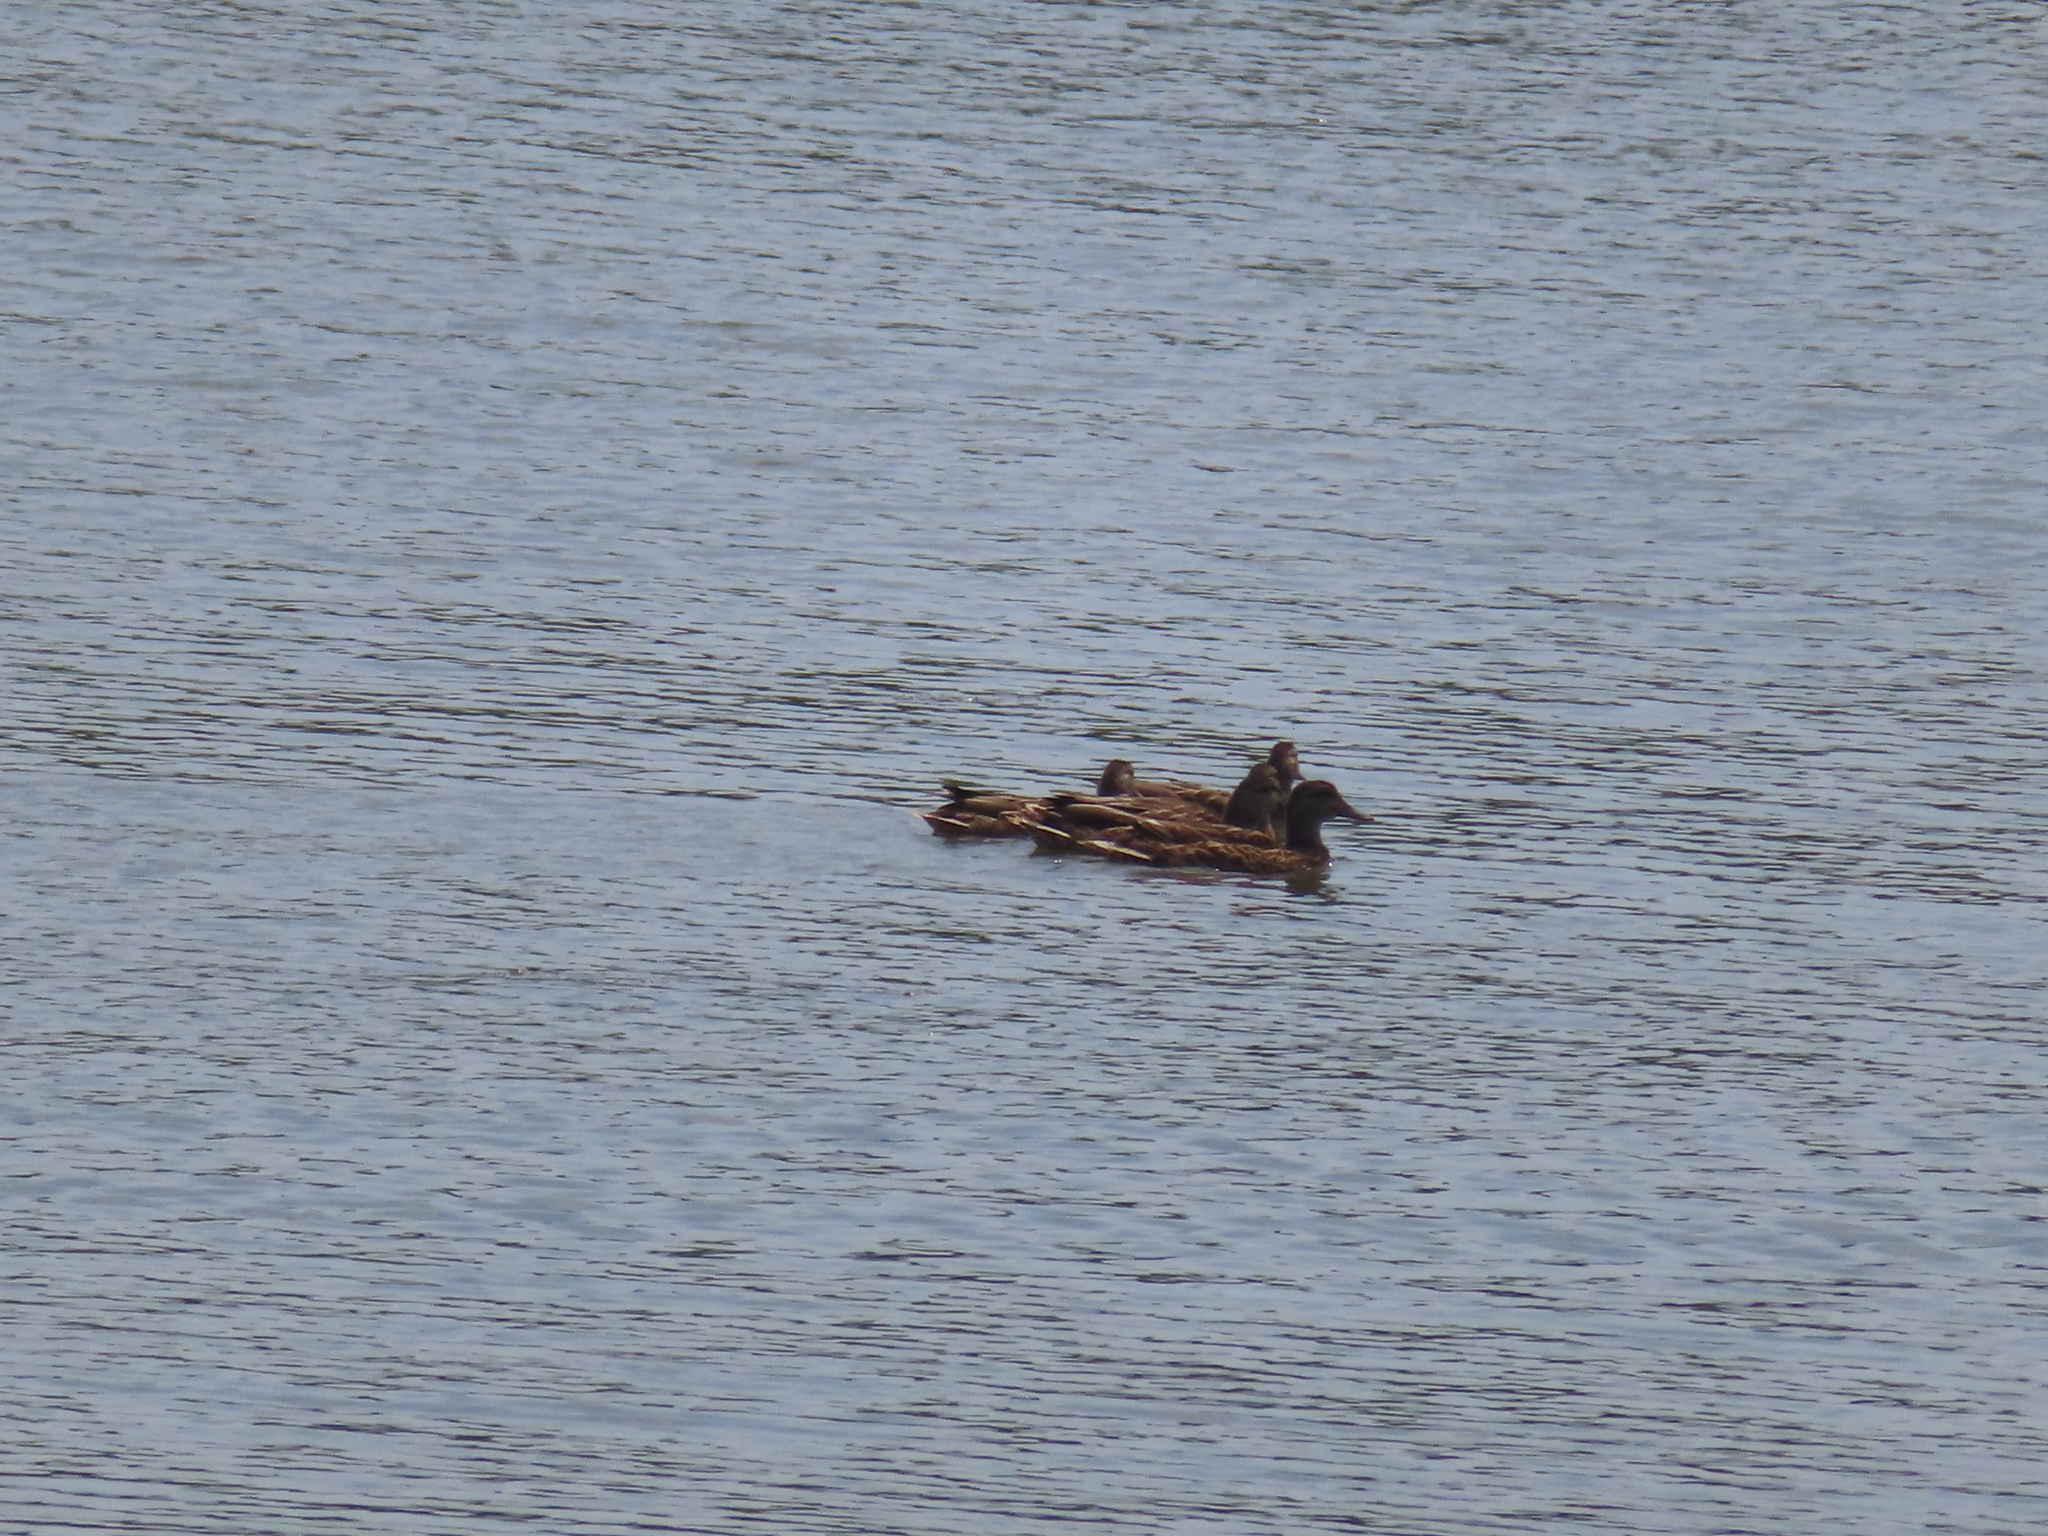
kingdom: Animalia
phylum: Chordata
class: Aves
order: Anseriformes
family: Anatidae
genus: Anas
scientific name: Anas platyrhynchos
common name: Mallard
